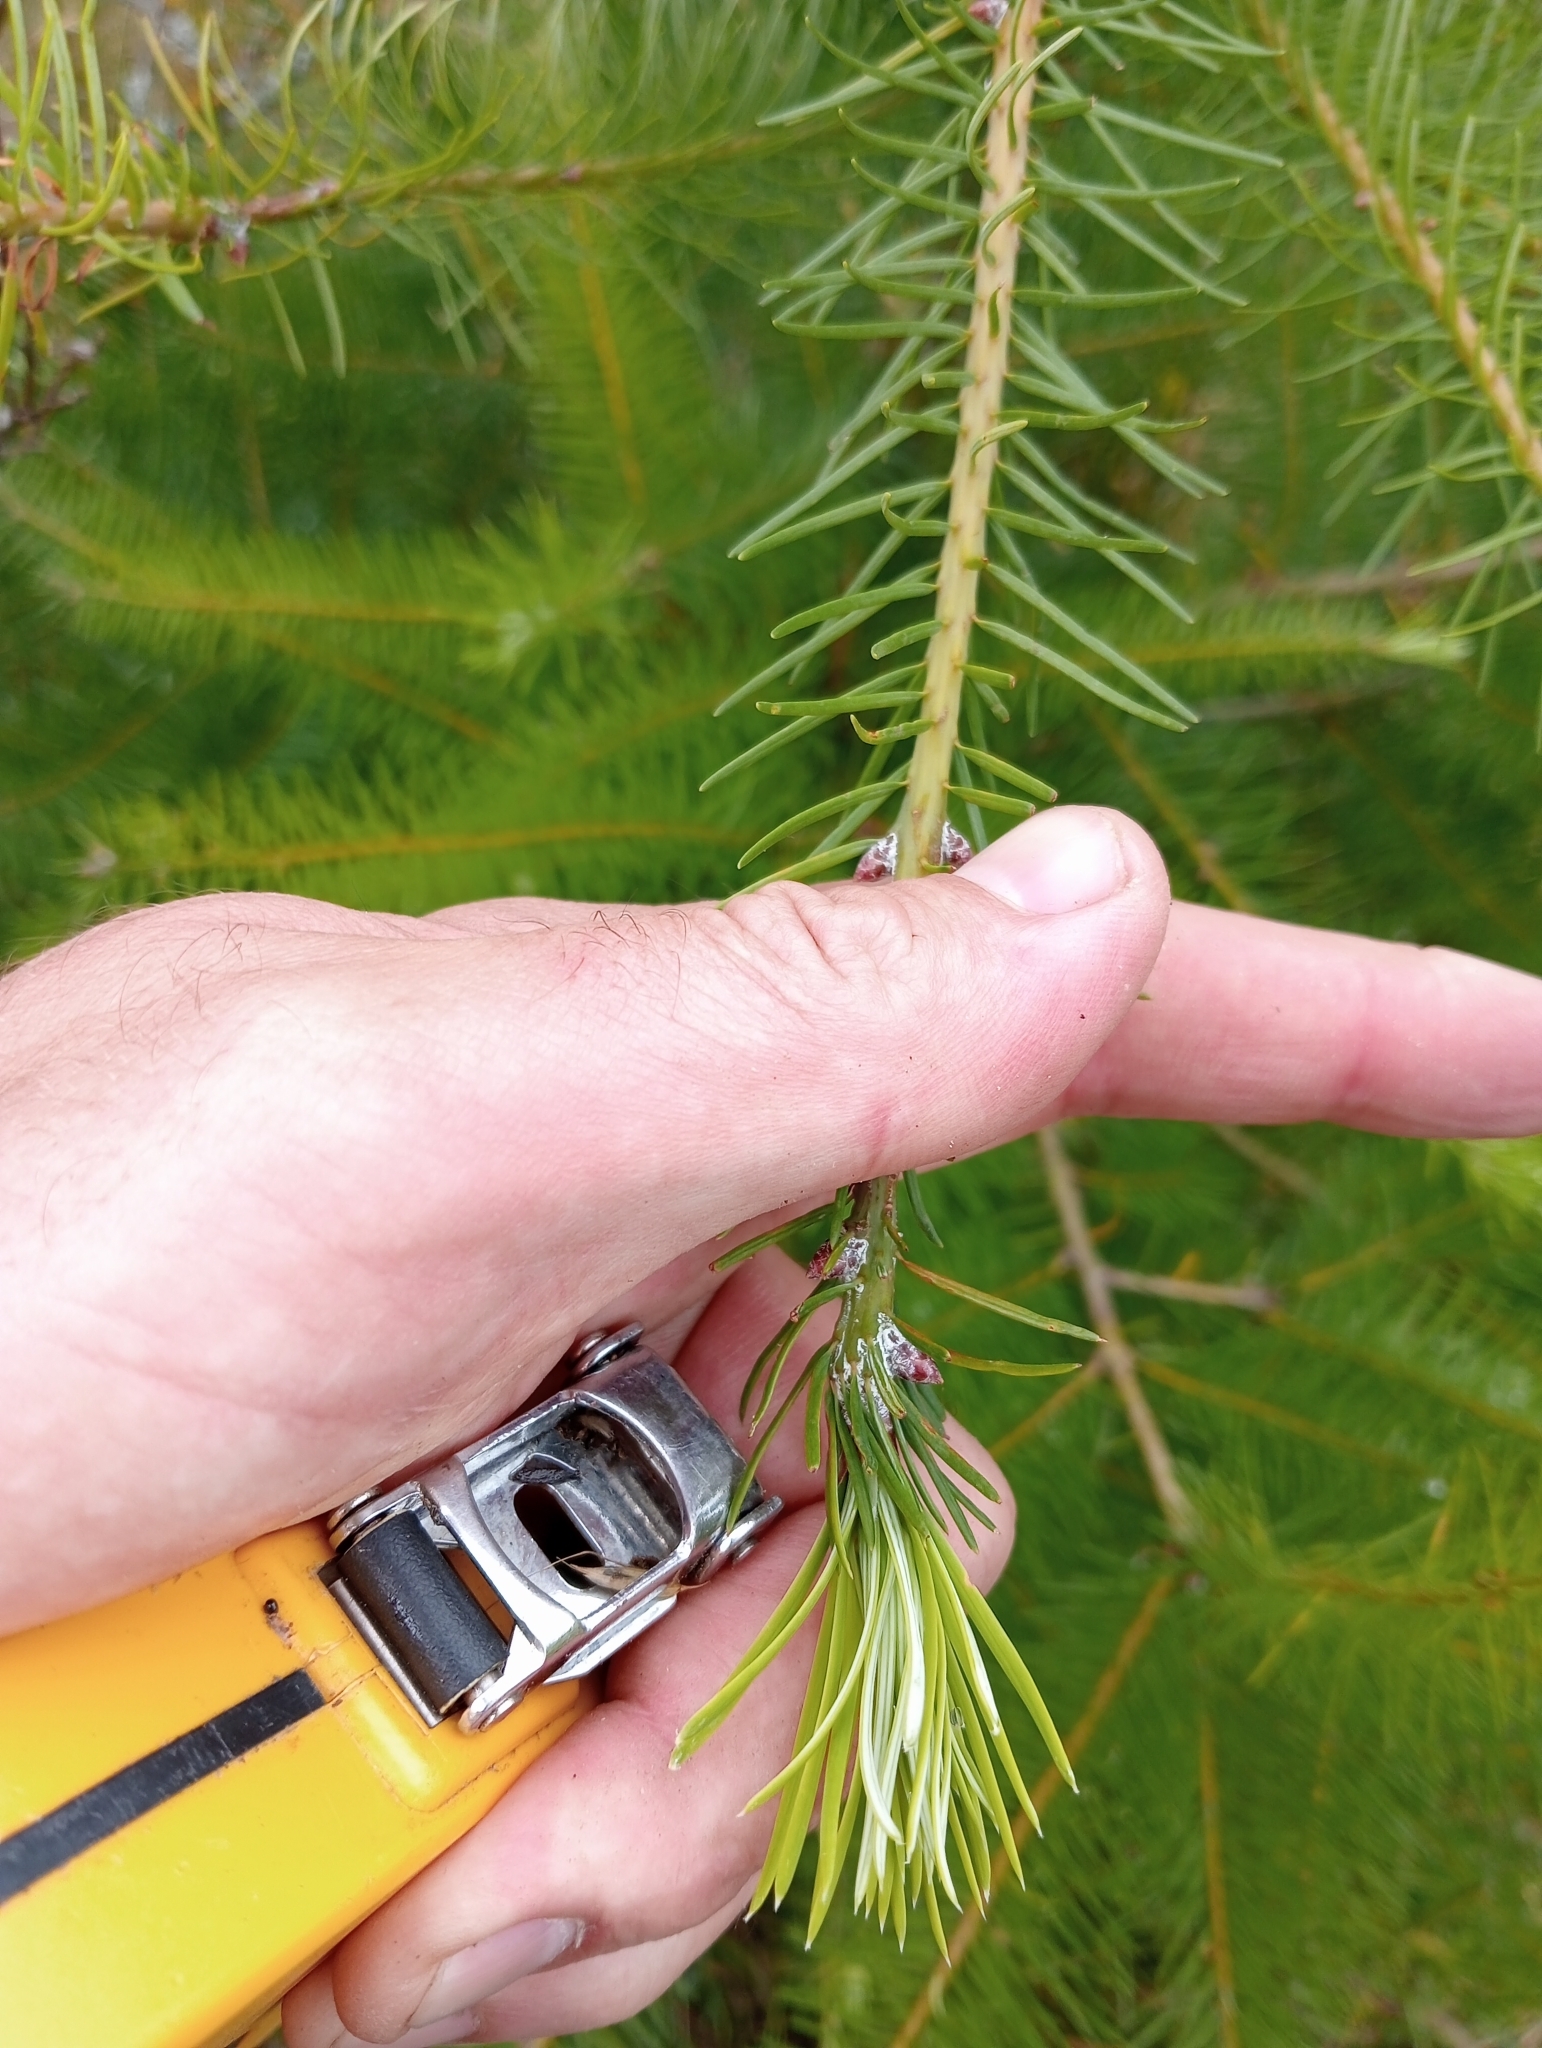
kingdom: Plantae
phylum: Tracheophyta
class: Pinopsida
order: Pinales
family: Pinaceae
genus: Pseudotsuga
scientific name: Pseudotsuga menziesii
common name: Douglas fir
